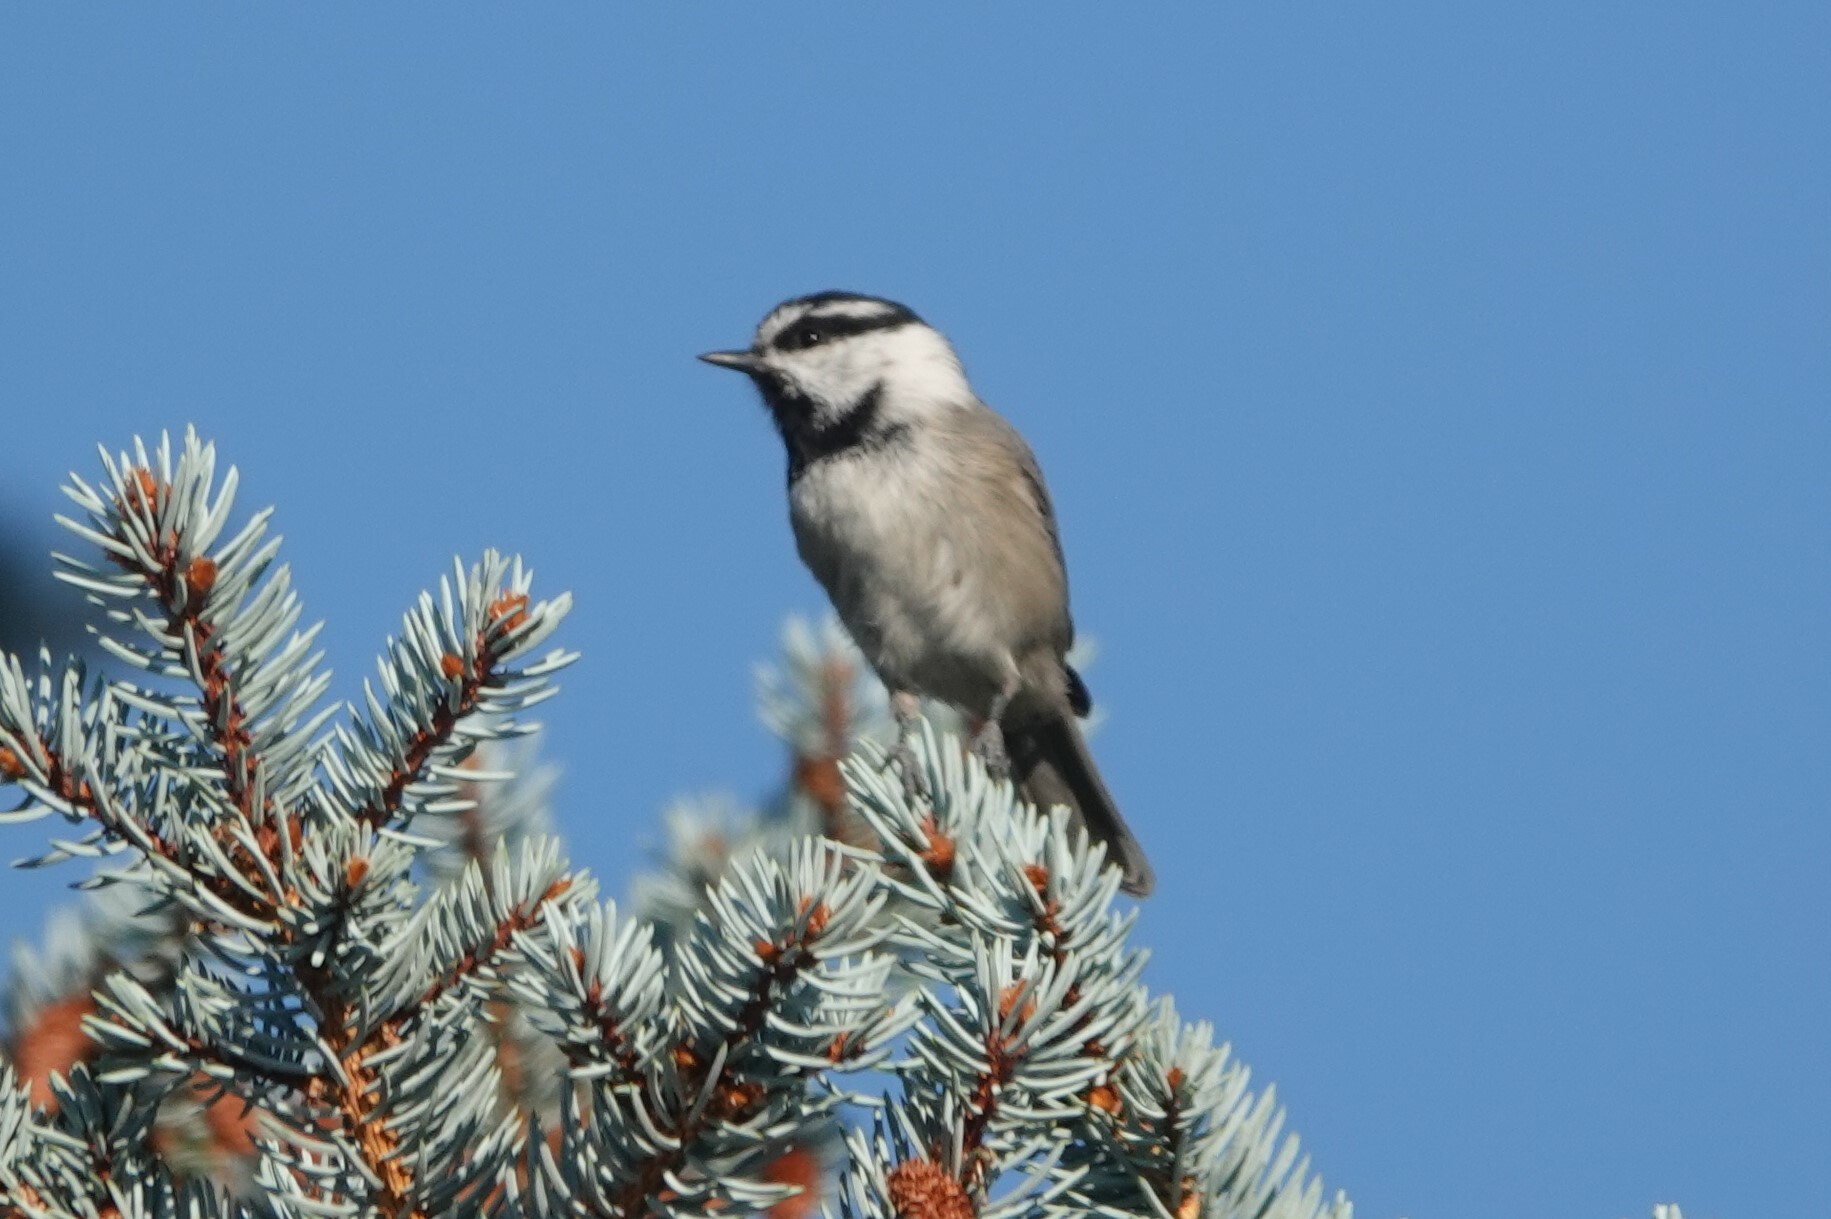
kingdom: Animalia
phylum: Chordata
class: Aves
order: Passeriformes
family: Paridae
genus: Poecile
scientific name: Poecile gambeli
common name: Mountain chickadee
